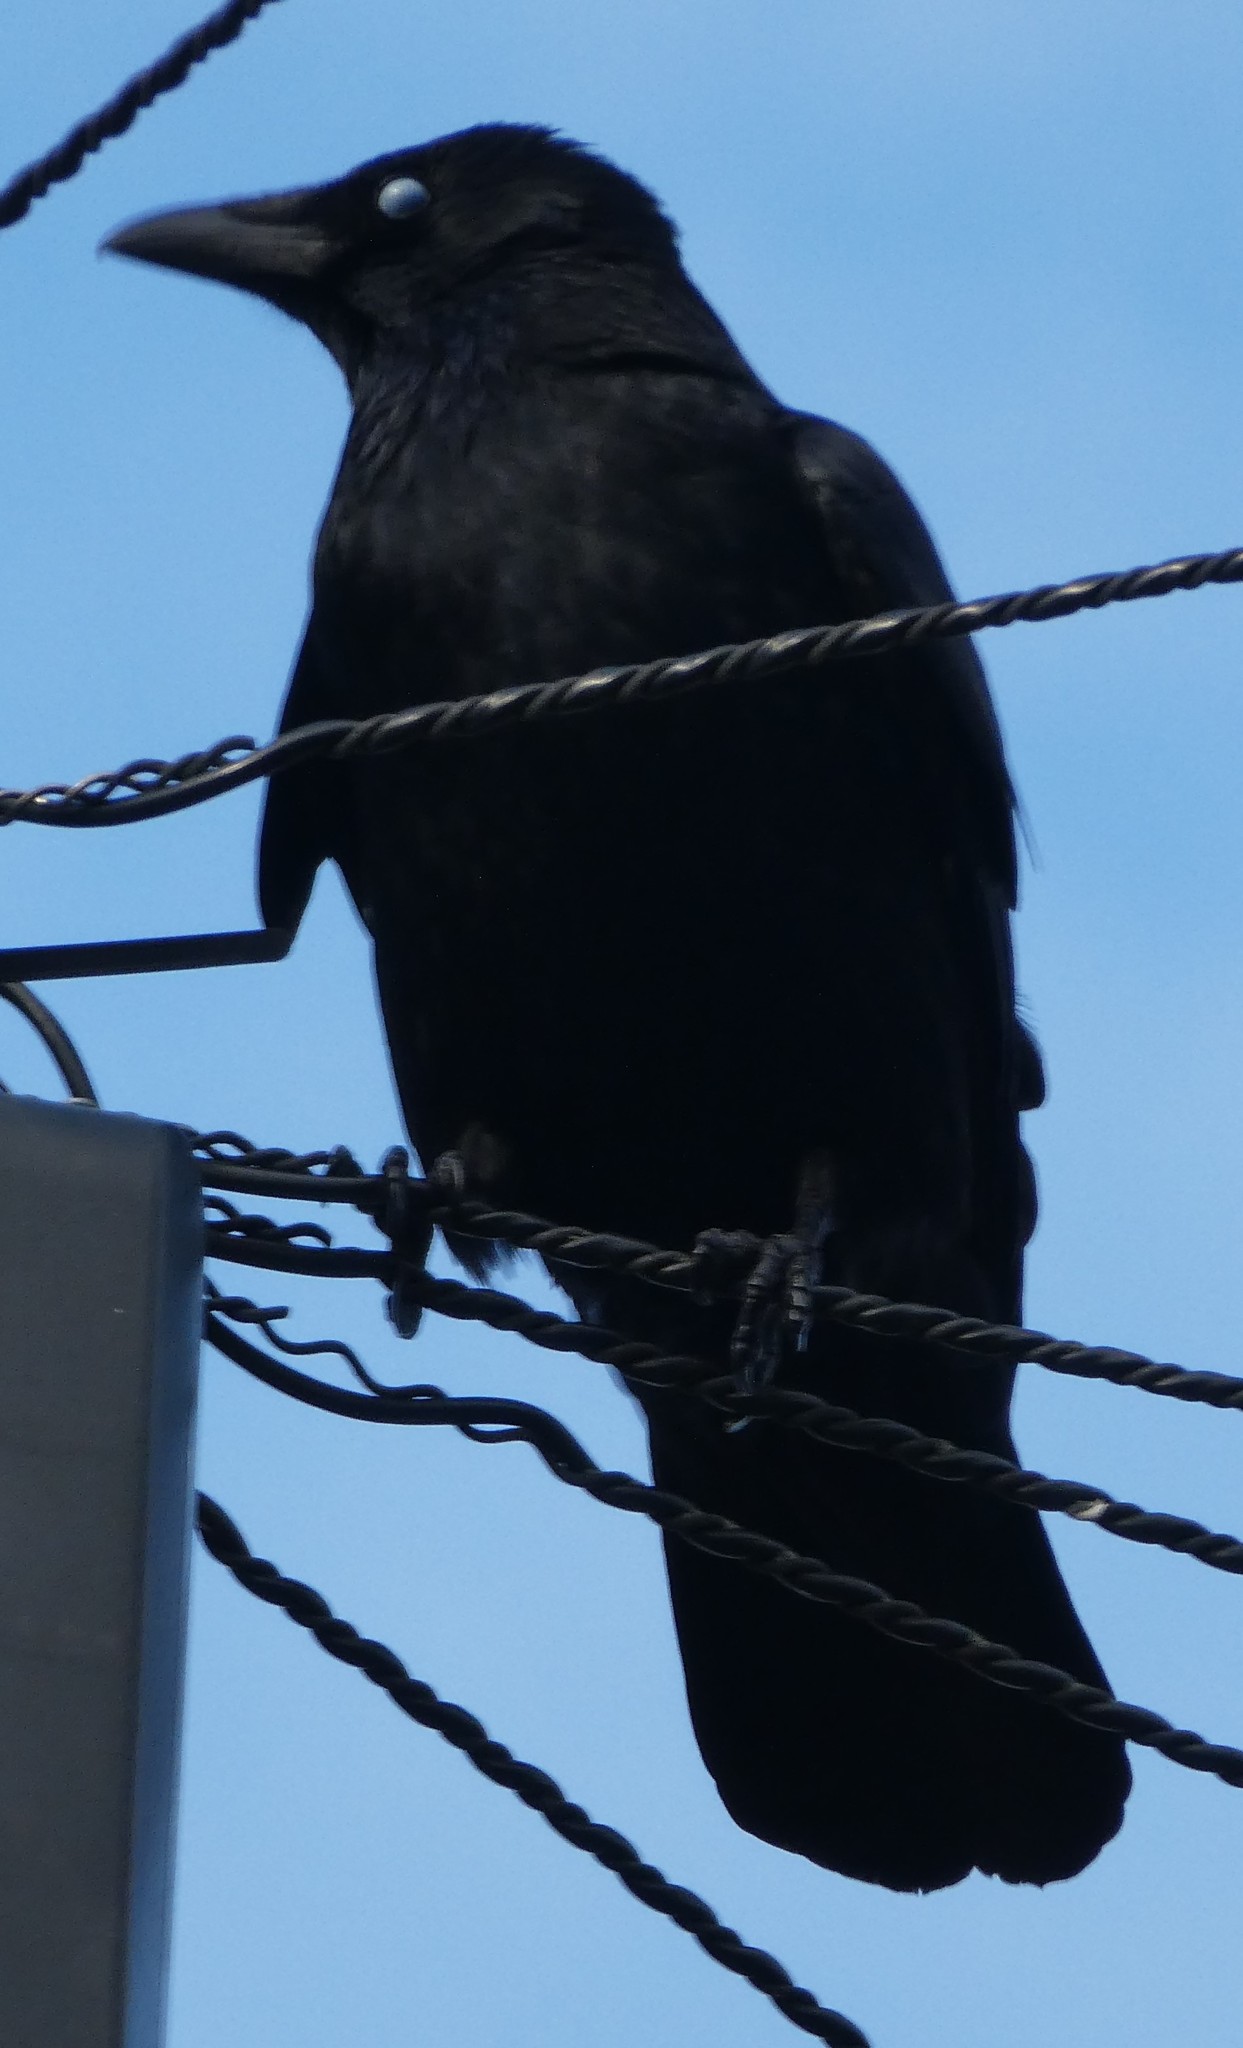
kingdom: Animalia
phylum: Chordata
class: Aves
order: Passeriformes
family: Corvidae
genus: Corvus
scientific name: Corvus corone
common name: Carrion crow
